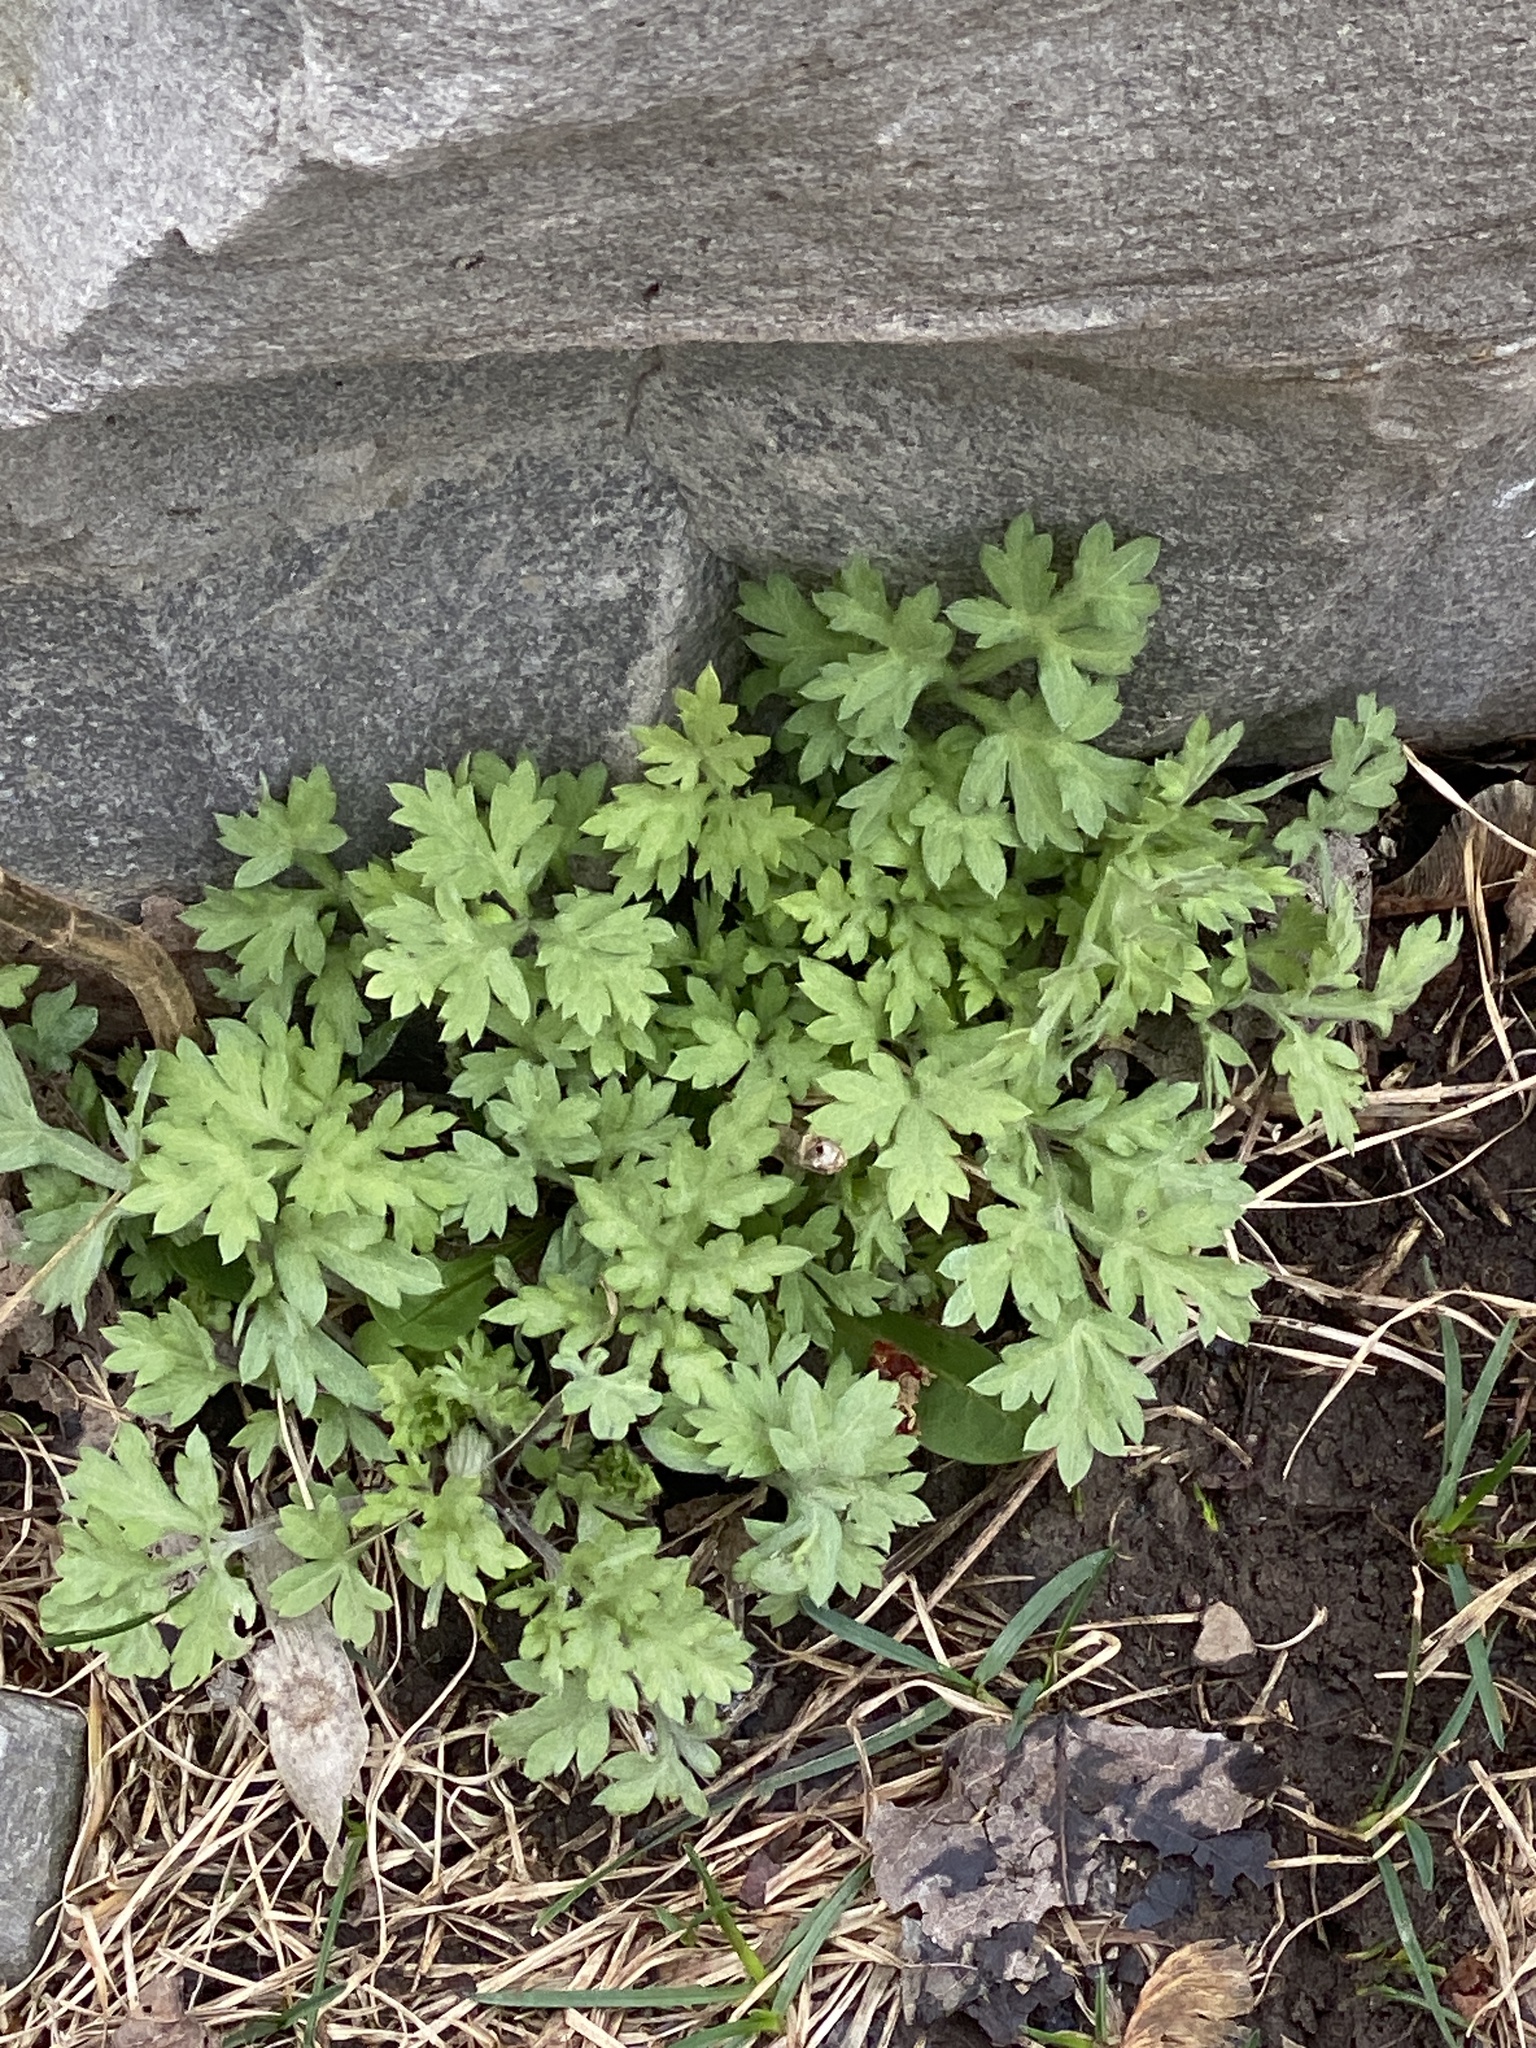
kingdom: Plantae
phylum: Tracheophyta
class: Magnoliopsida
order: Asterales
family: Asteraceae
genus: Artemisia
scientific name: Artemisia vulgaris
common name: Mugwort
